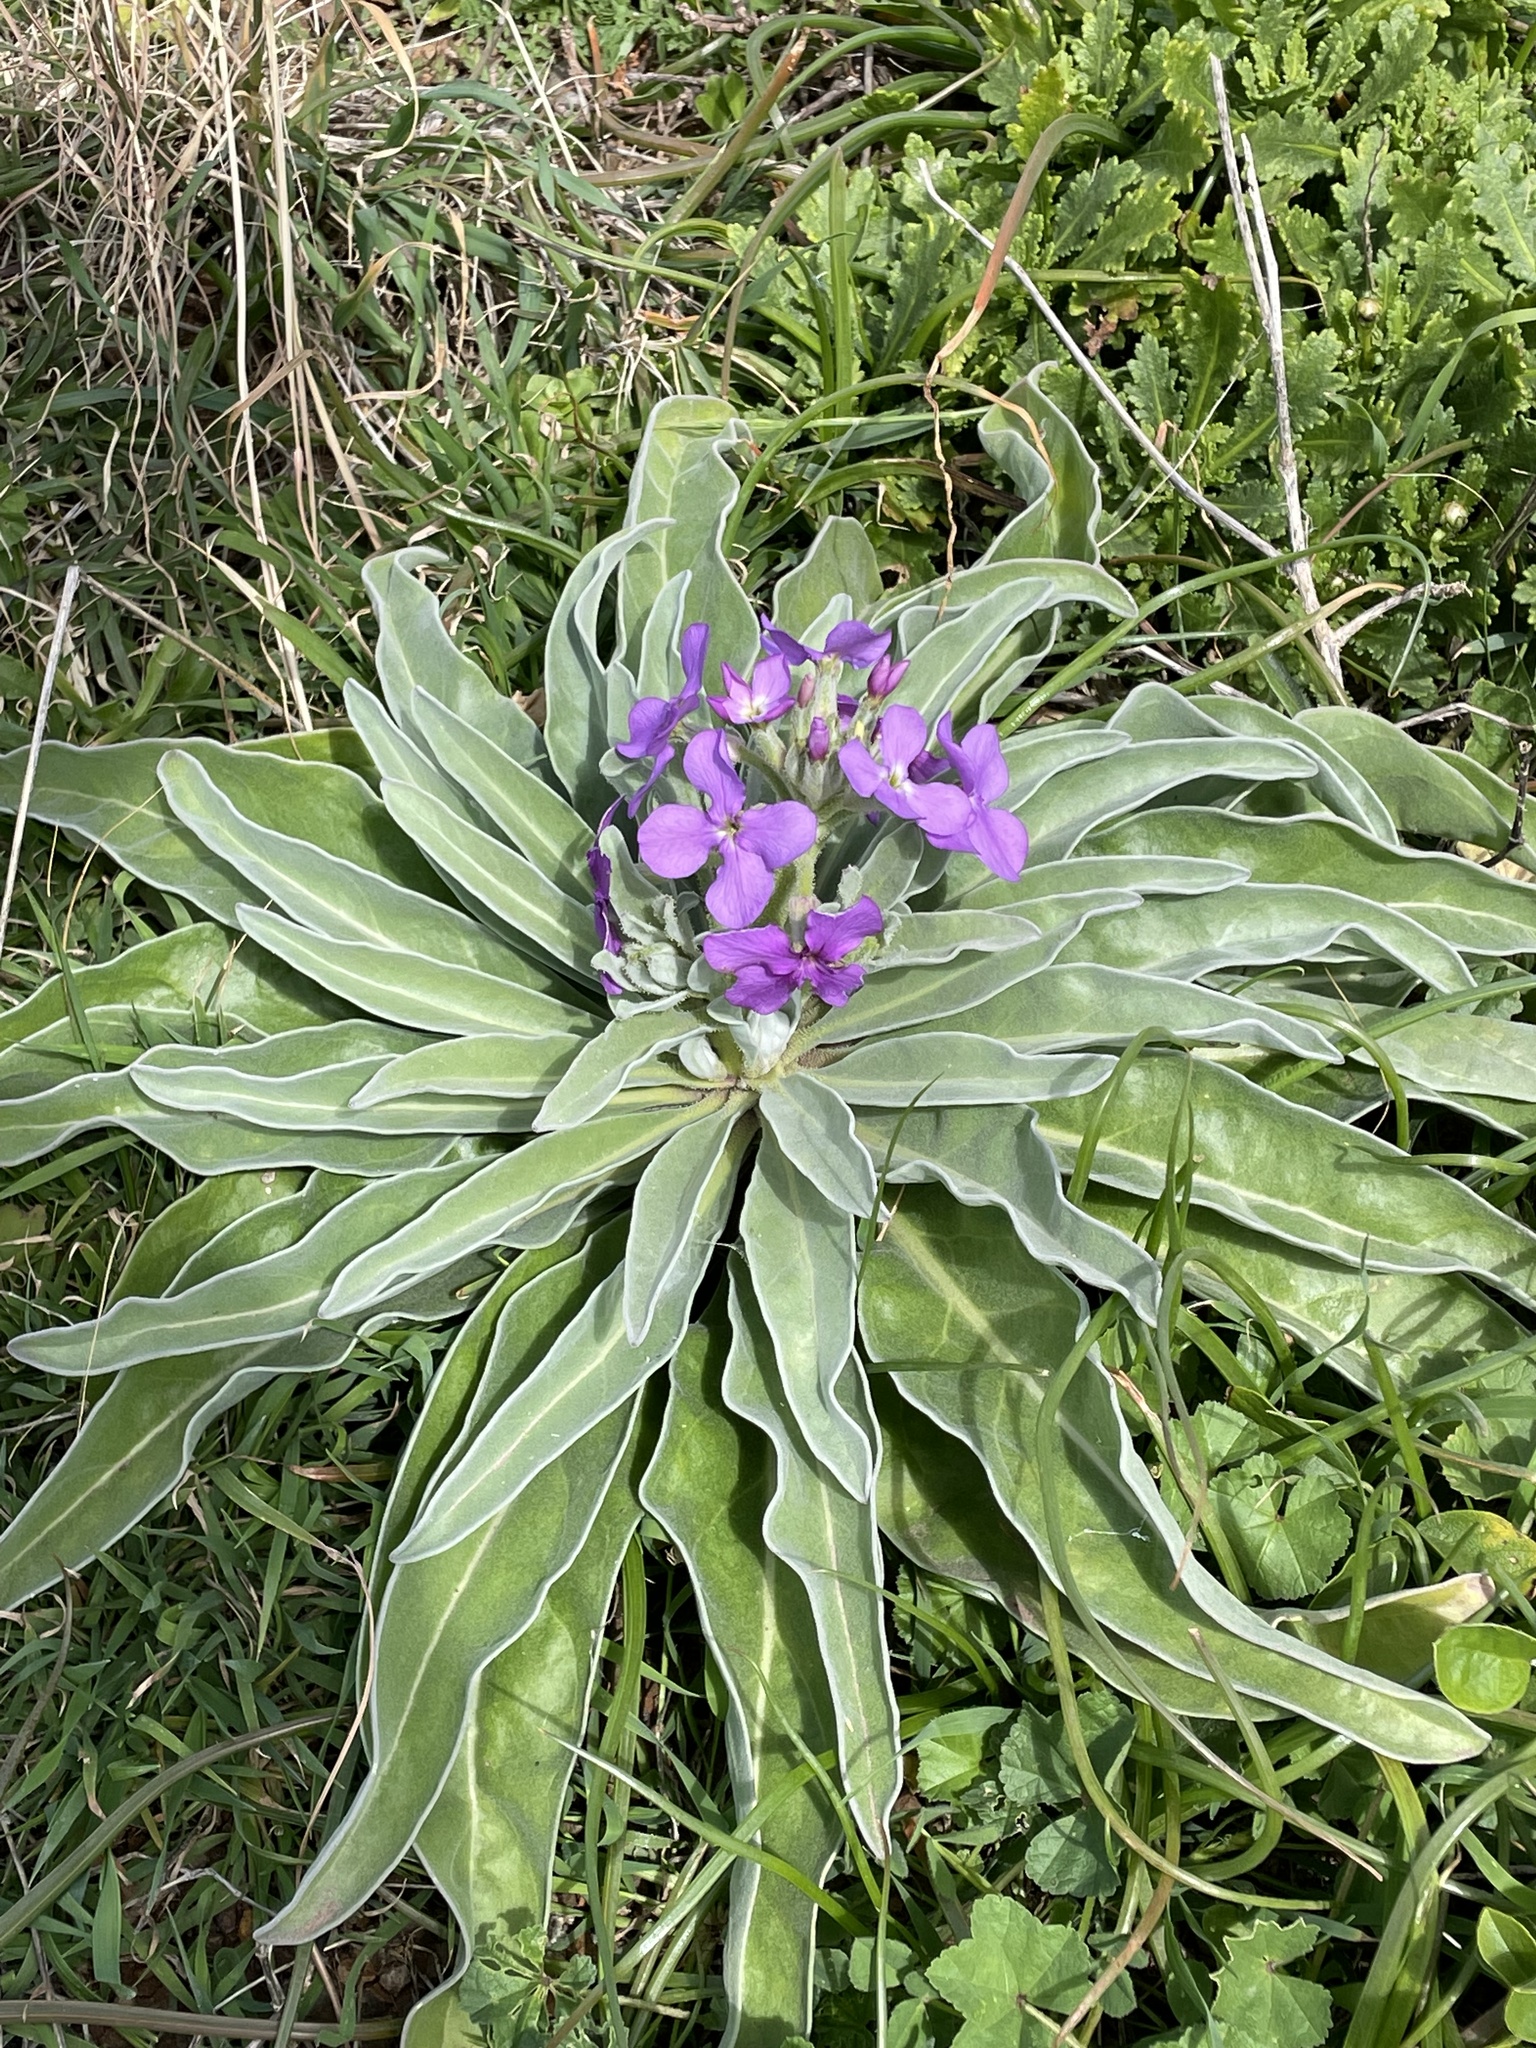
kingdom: Plantae
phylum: Tracheophyta
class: Magnoliopsida
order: Brassicales
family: Brassicaceae
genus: Matthiola
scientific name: Matthiola maderensis
